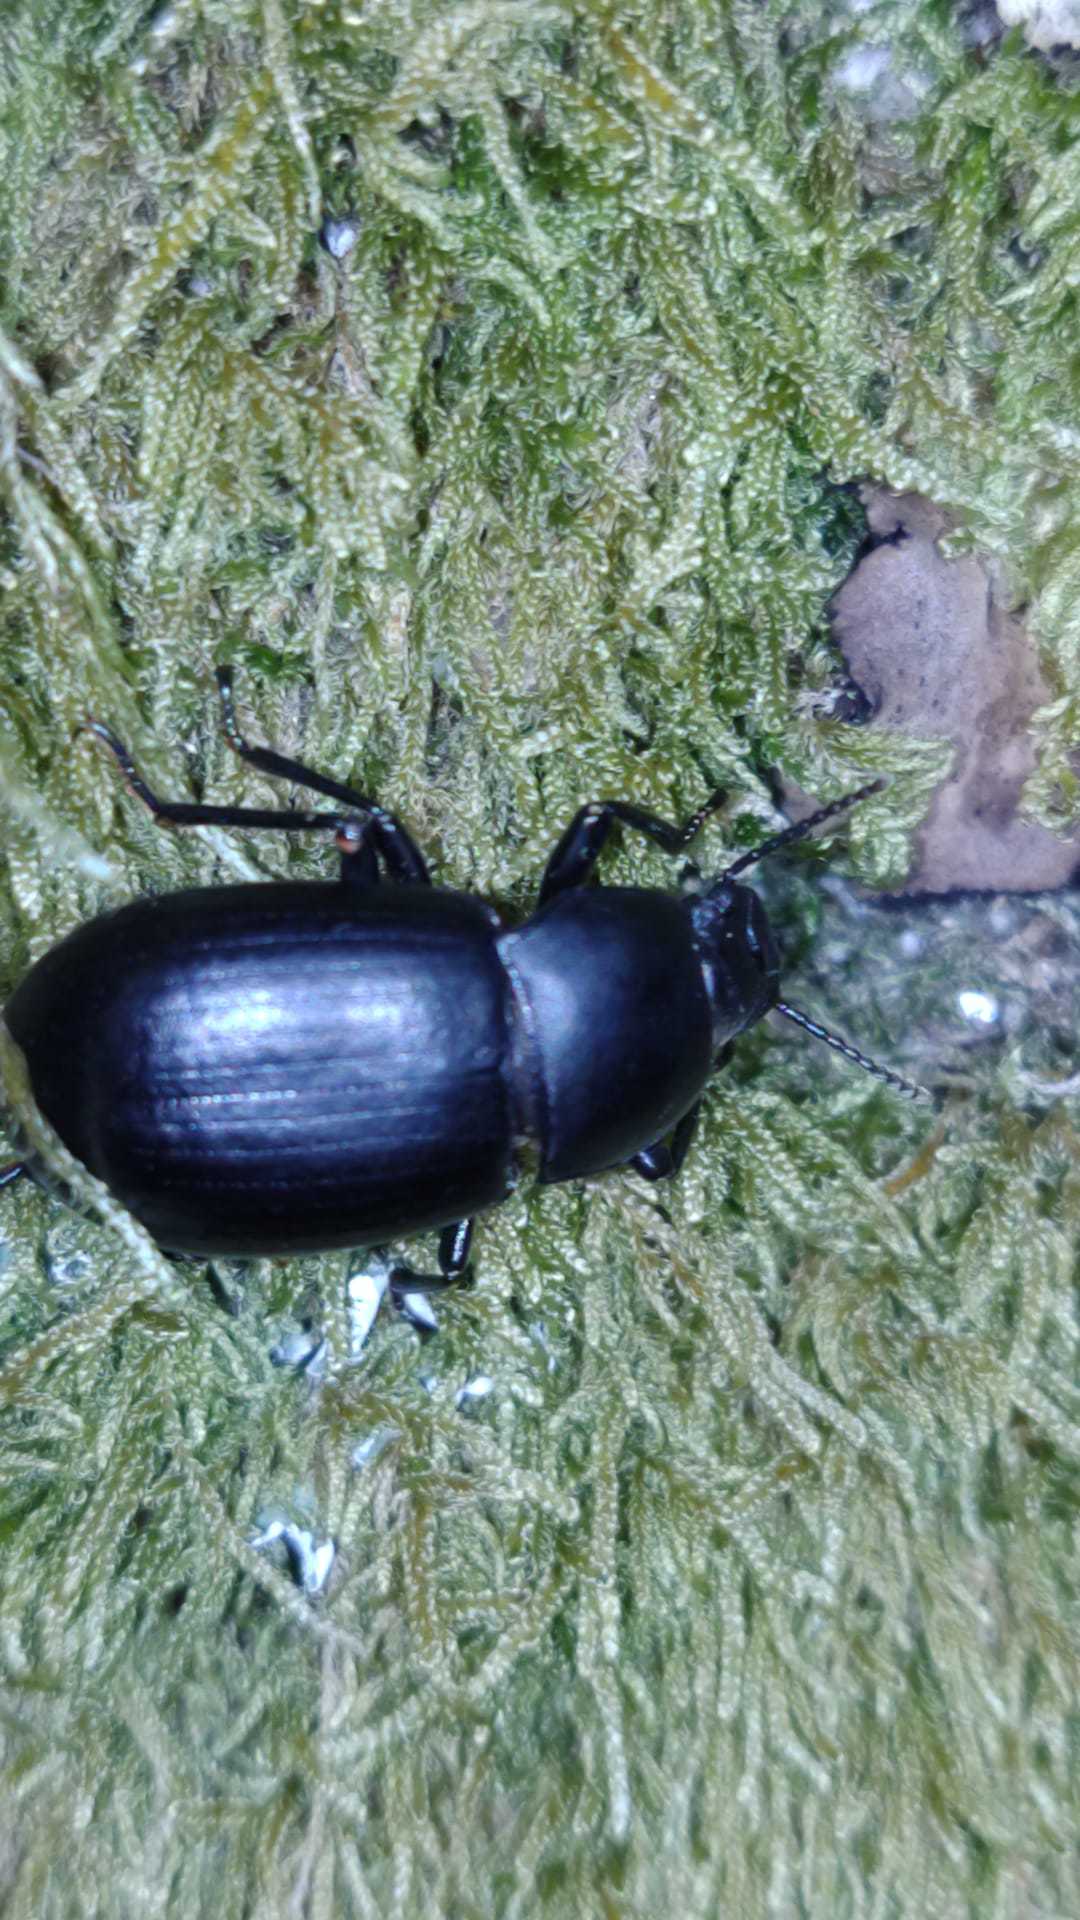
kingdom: Animalia
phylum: Arthropoda
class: Insecta
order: Coleoptera
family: Tenebrionidae
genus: Coelometopus
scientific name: Coelometopus clypeatus
